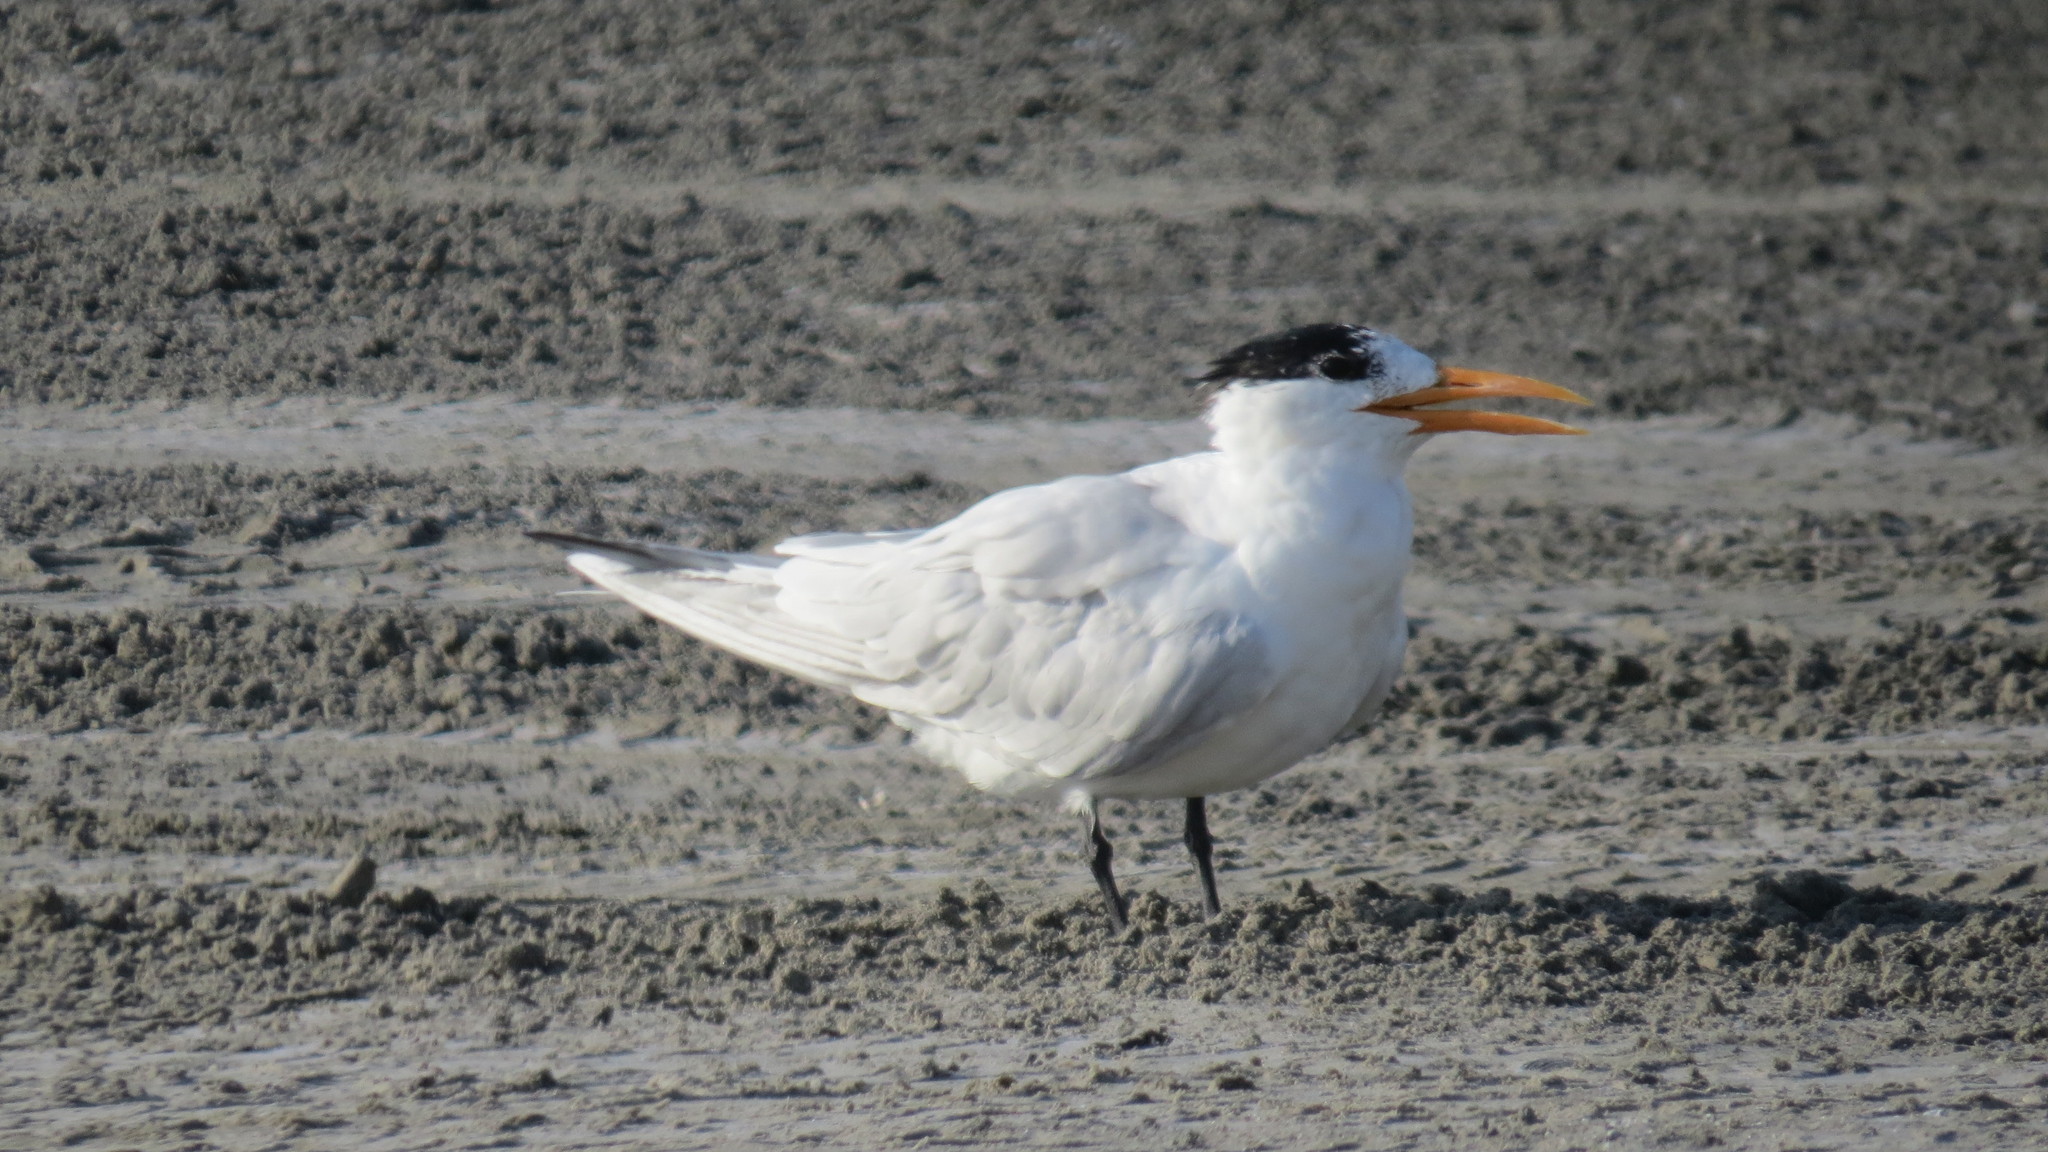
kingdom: Animalia
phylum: Chordata
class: Aves
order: Charadriiformes
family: Laridae
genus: Thalasseus
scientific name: Thalasseus maximus
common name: Royal tern
